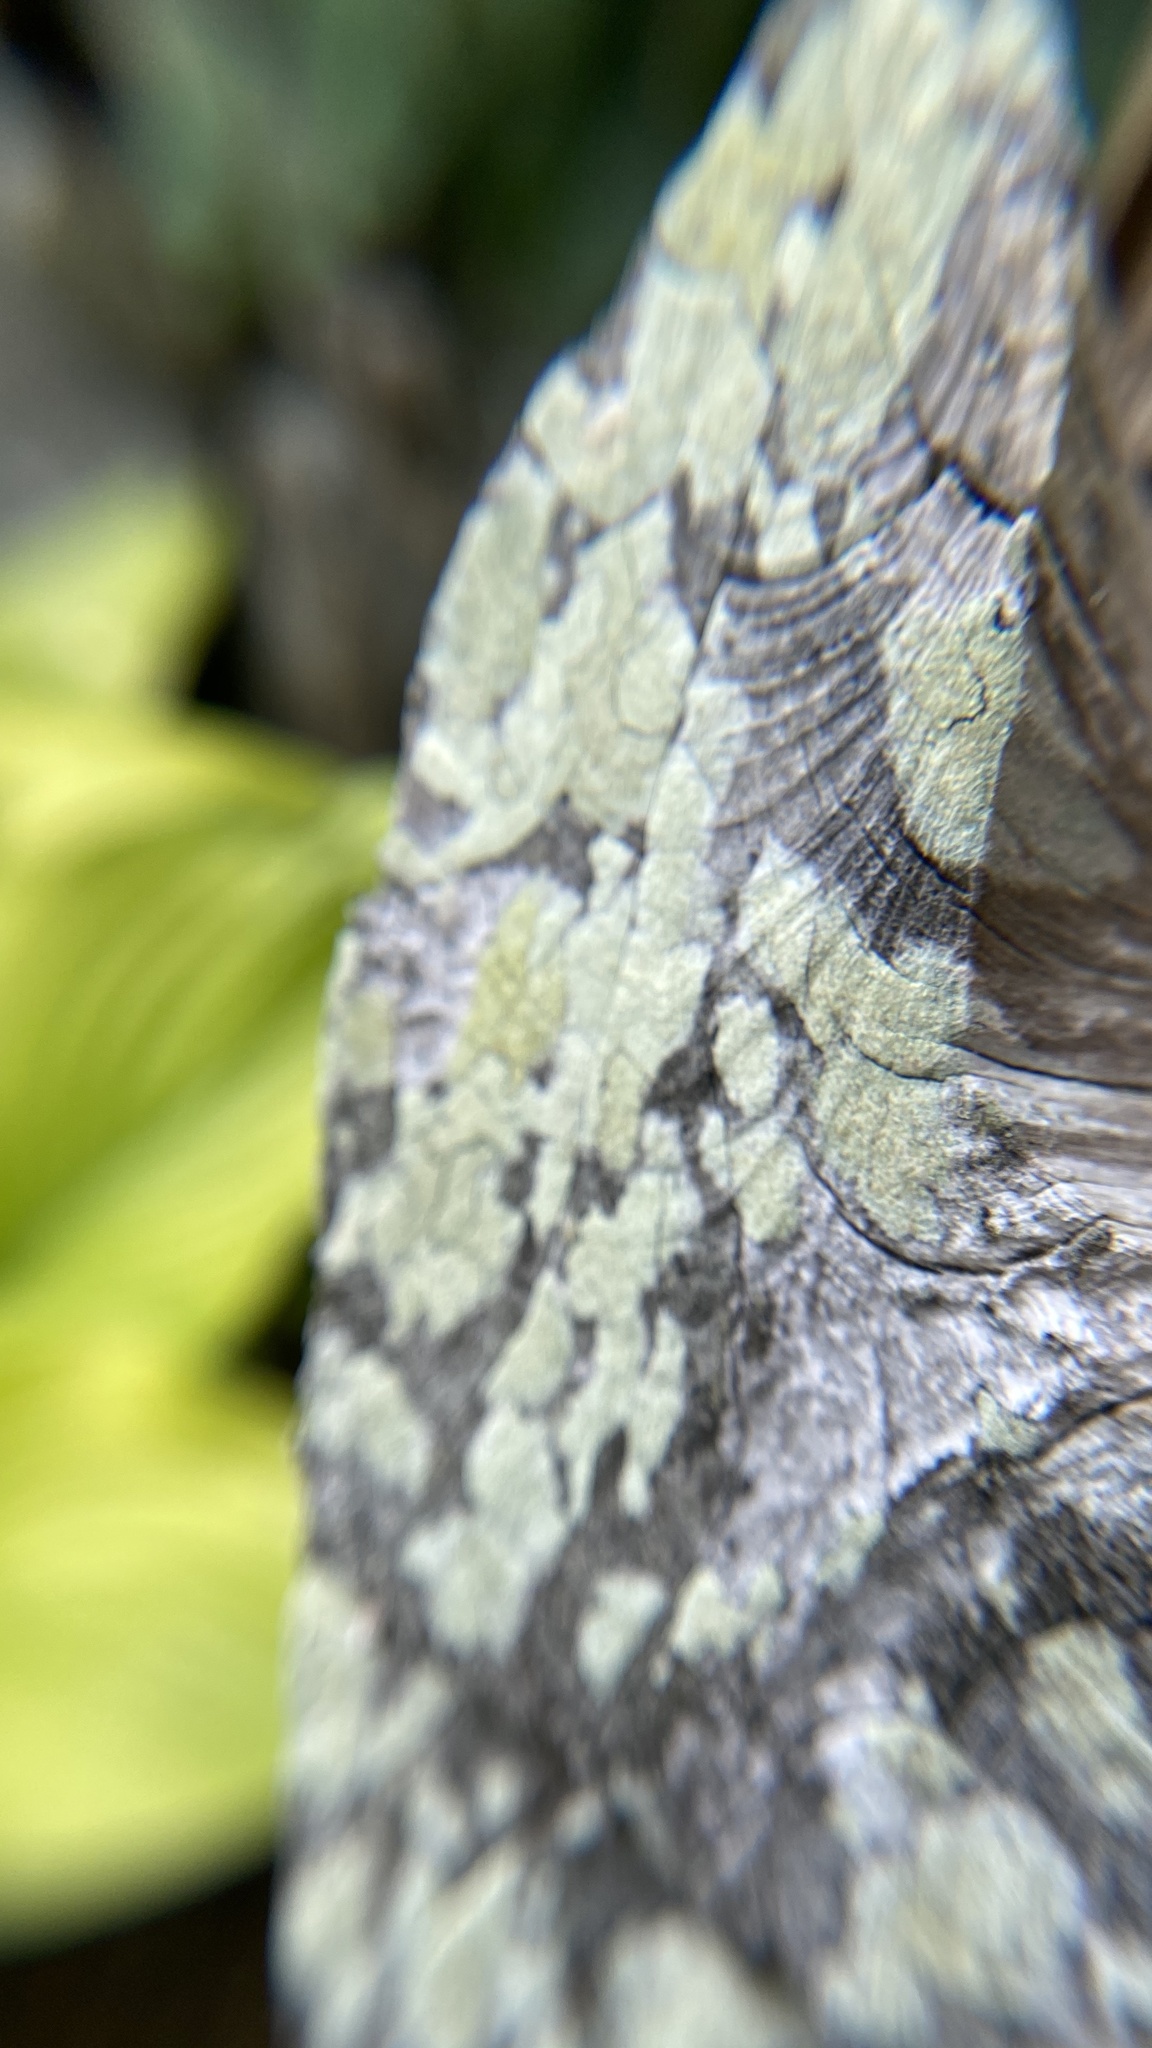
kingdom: Fungi
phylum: Ascomycota
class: Lecanoromycetes
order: Lecanorales
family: Stereocaulaceae
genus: Lepraria
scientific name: Lepraria
